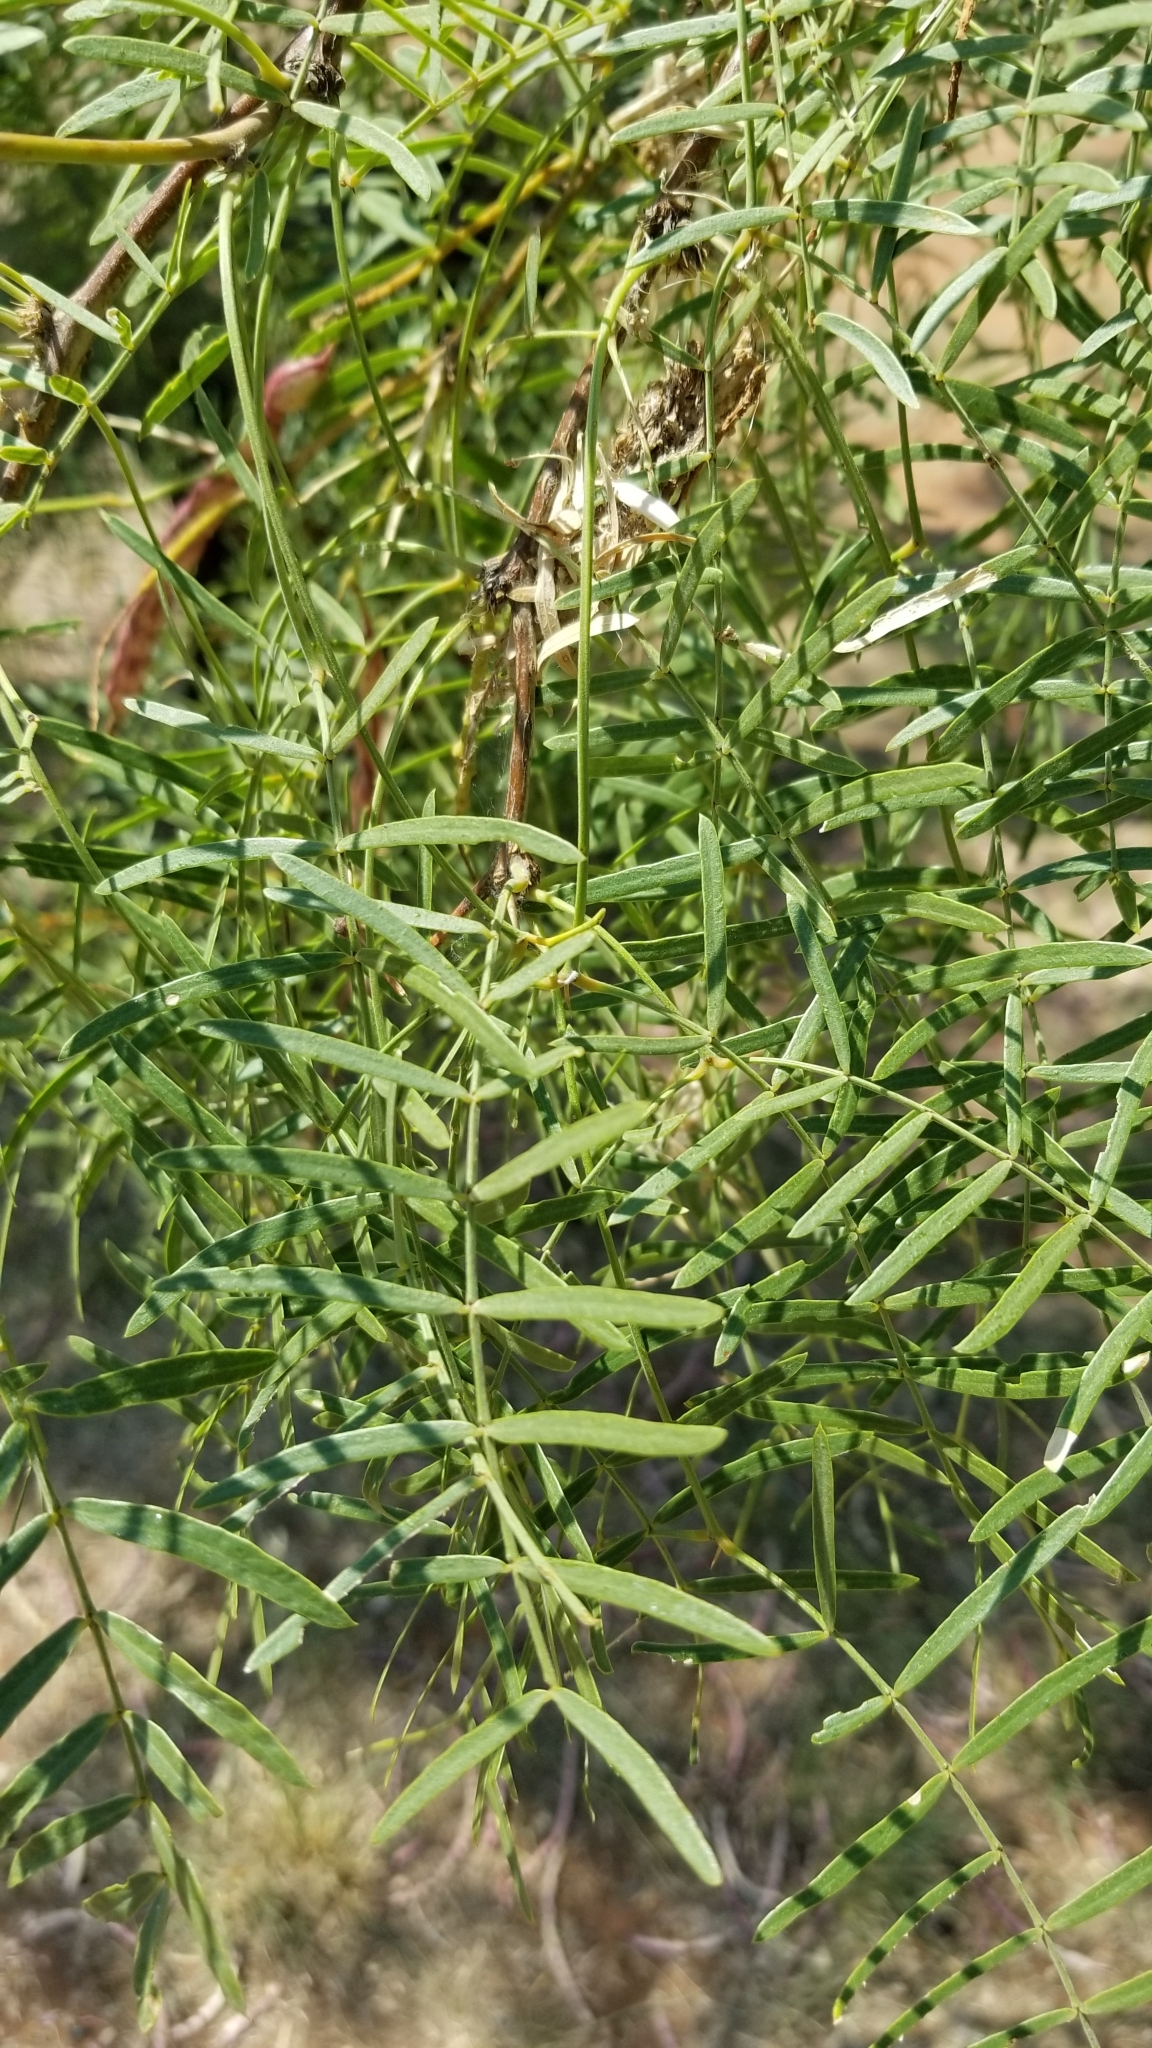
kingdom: Plantae
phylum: Tracheophyta
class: Magnoliopsida
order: Fabales
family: Fabaceae
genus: Prosopis
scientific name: Prosopis glandulosa
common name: Honey mesquite
